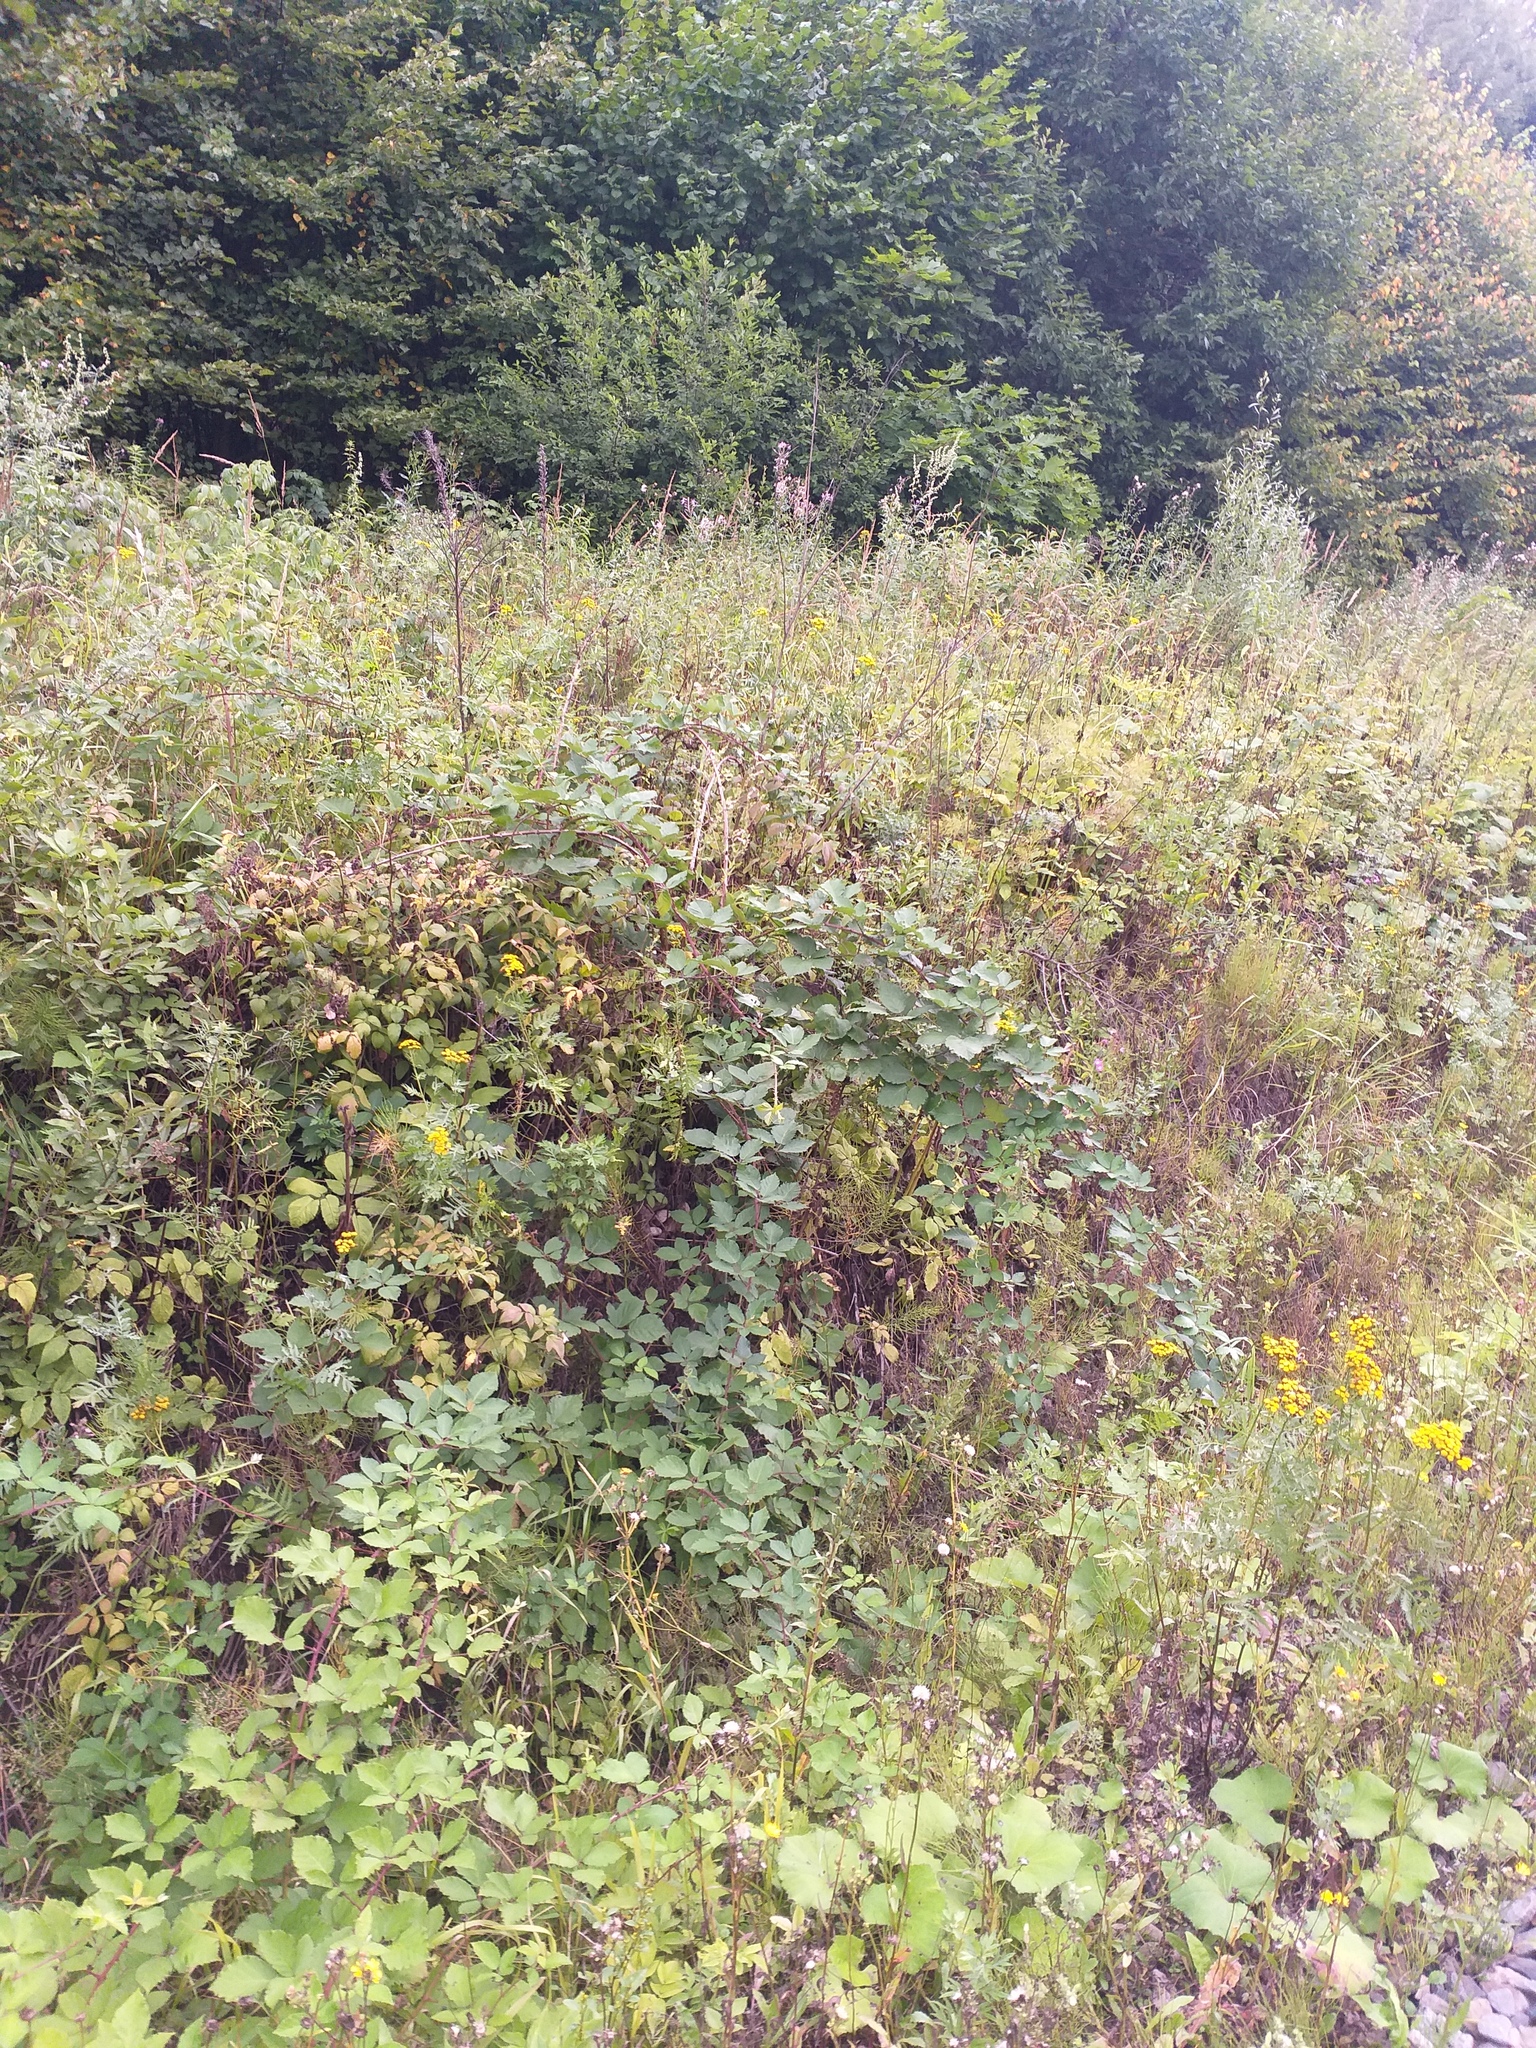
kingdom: Plantae
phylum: Tracheophyta
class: Magnoliopsida
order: Rosales
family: Rosaceae
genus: Rubus
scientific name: Rubus procerus
